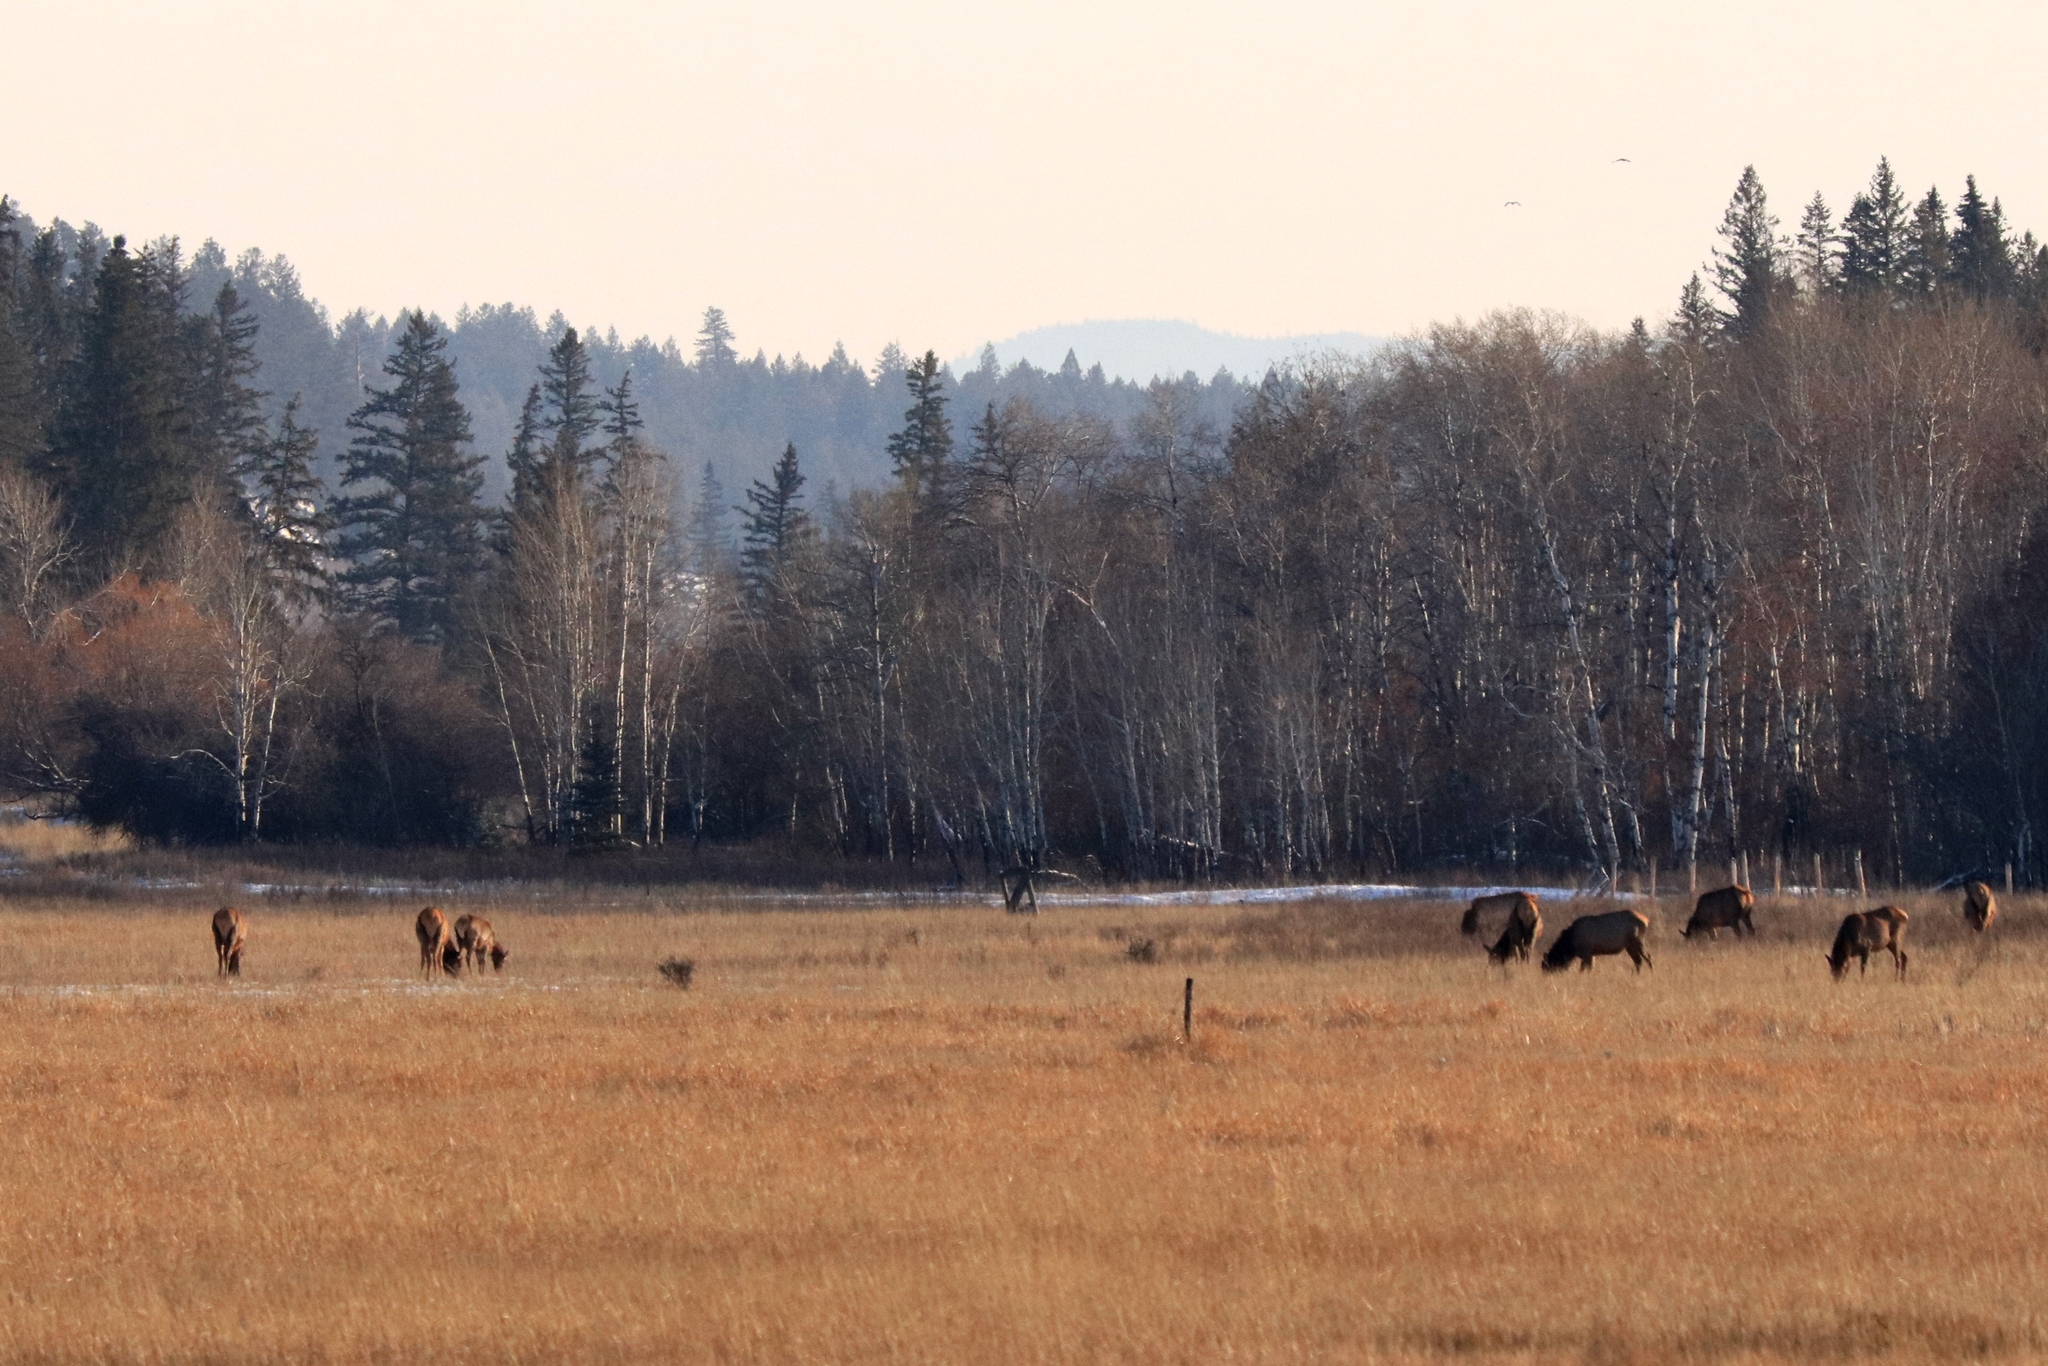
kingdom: Animalia
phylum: Chordata
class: Mammalia
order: Artiodactyla
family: Cervidae
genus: Cervus
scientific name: Cervus elaphus
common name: Red deer
